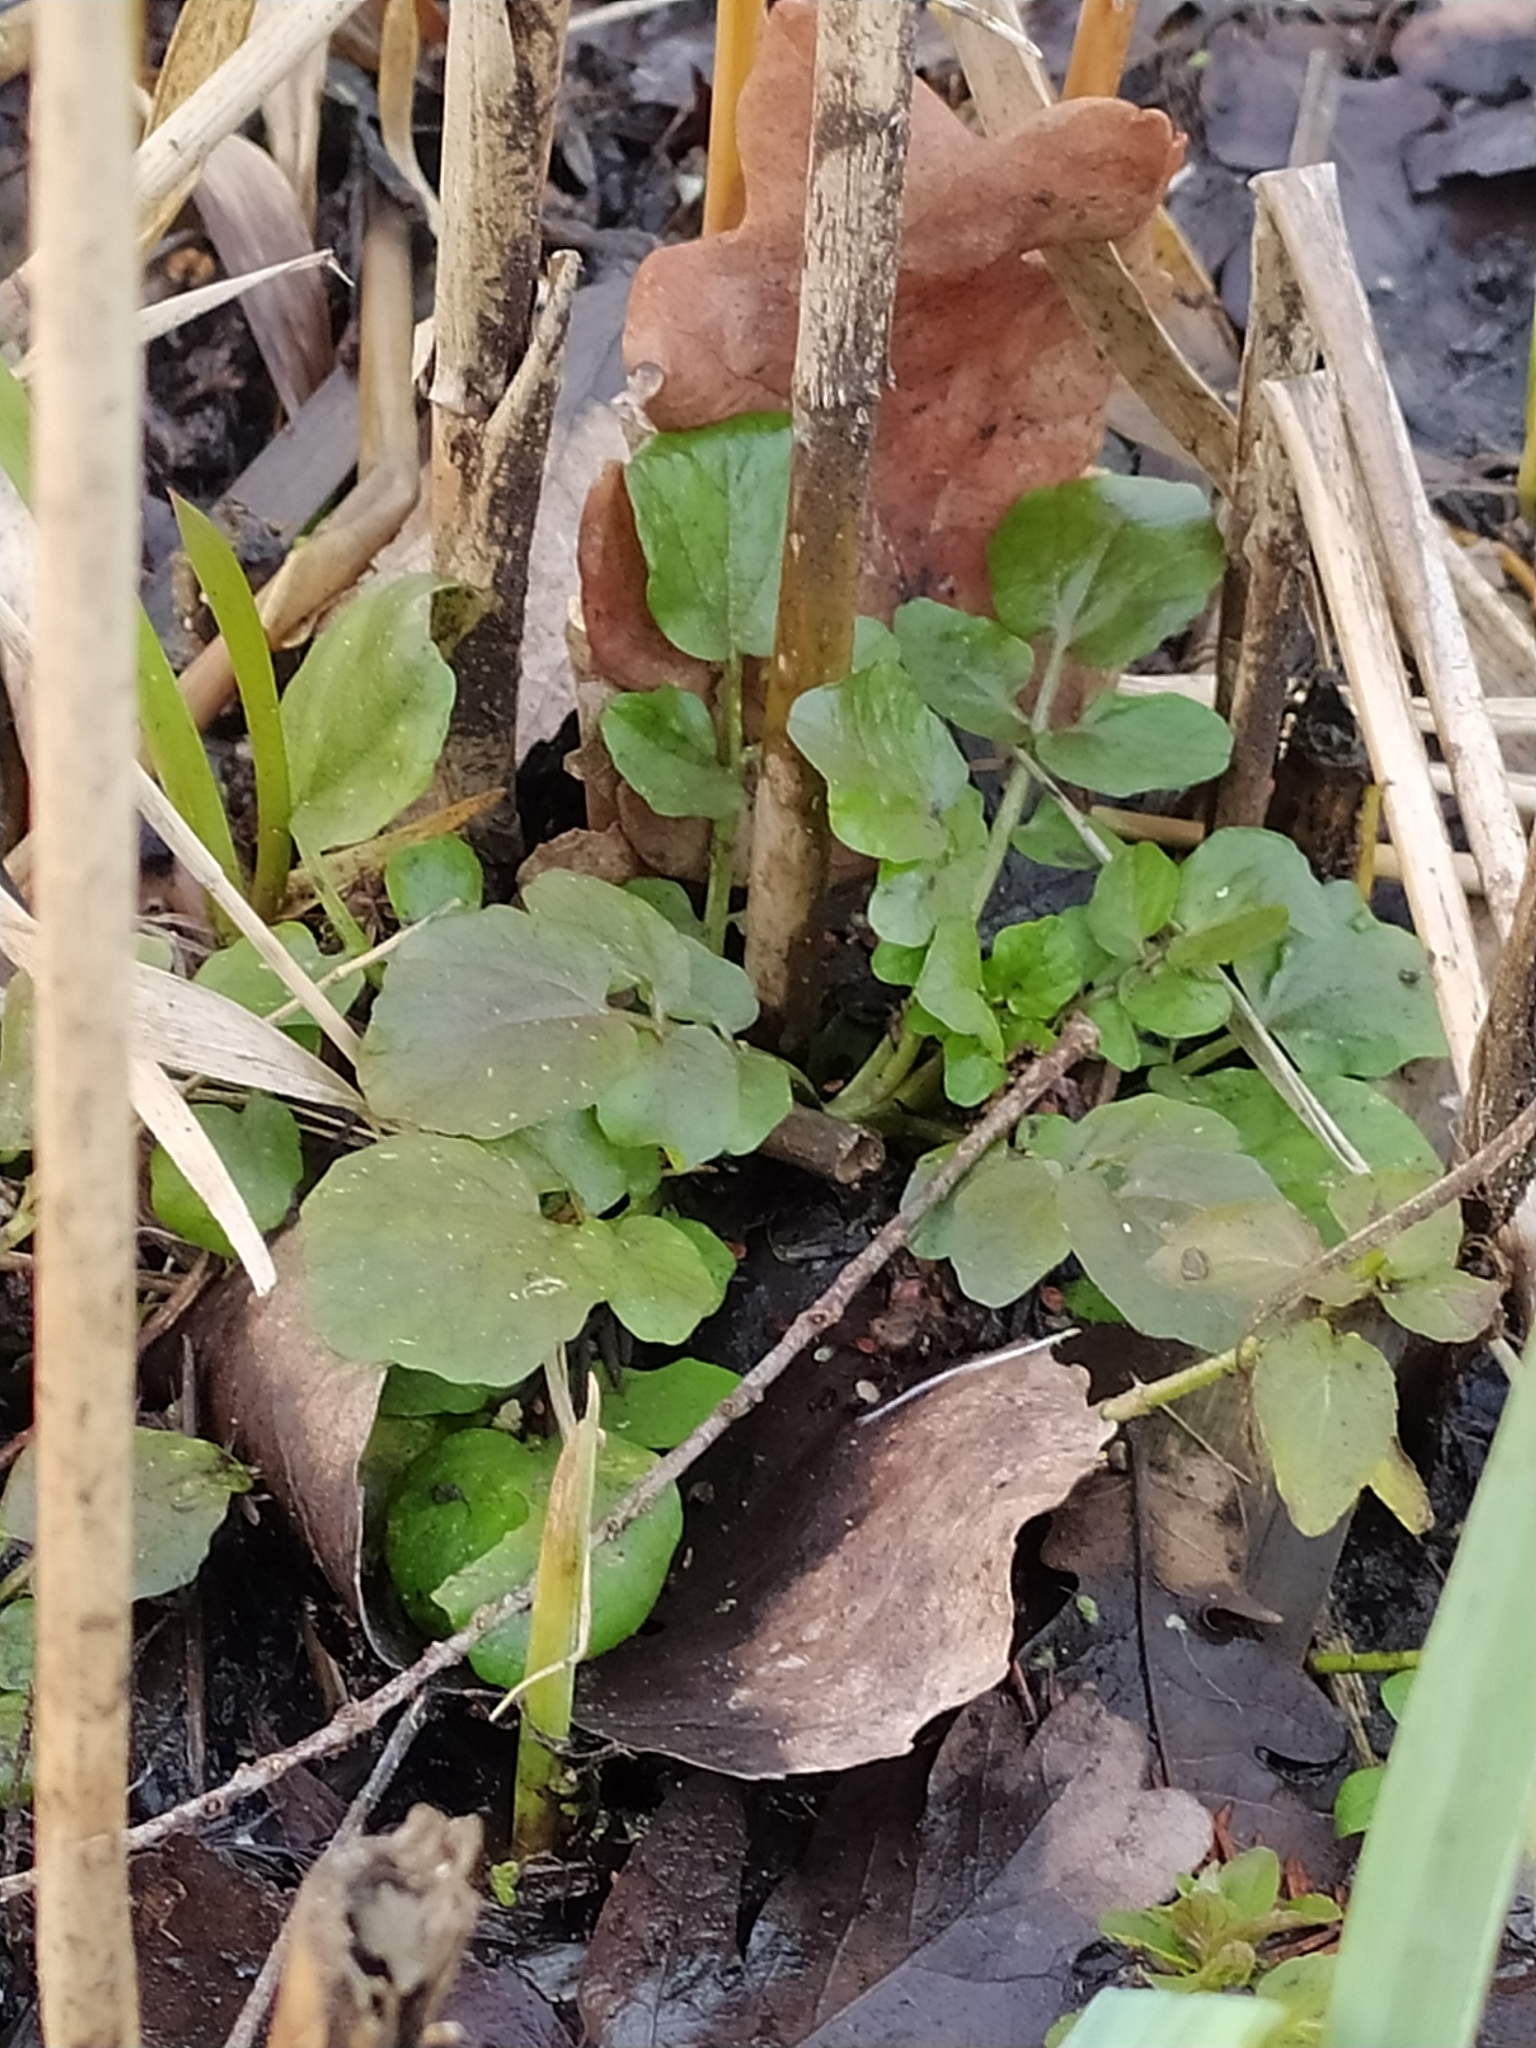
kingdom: Plantae
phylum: Tracheophyta
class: Magnoliopsida
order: Brassicales
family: Brassicaceae
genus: Nasturtium
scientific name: Nasturtium officinale
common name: Watercress
